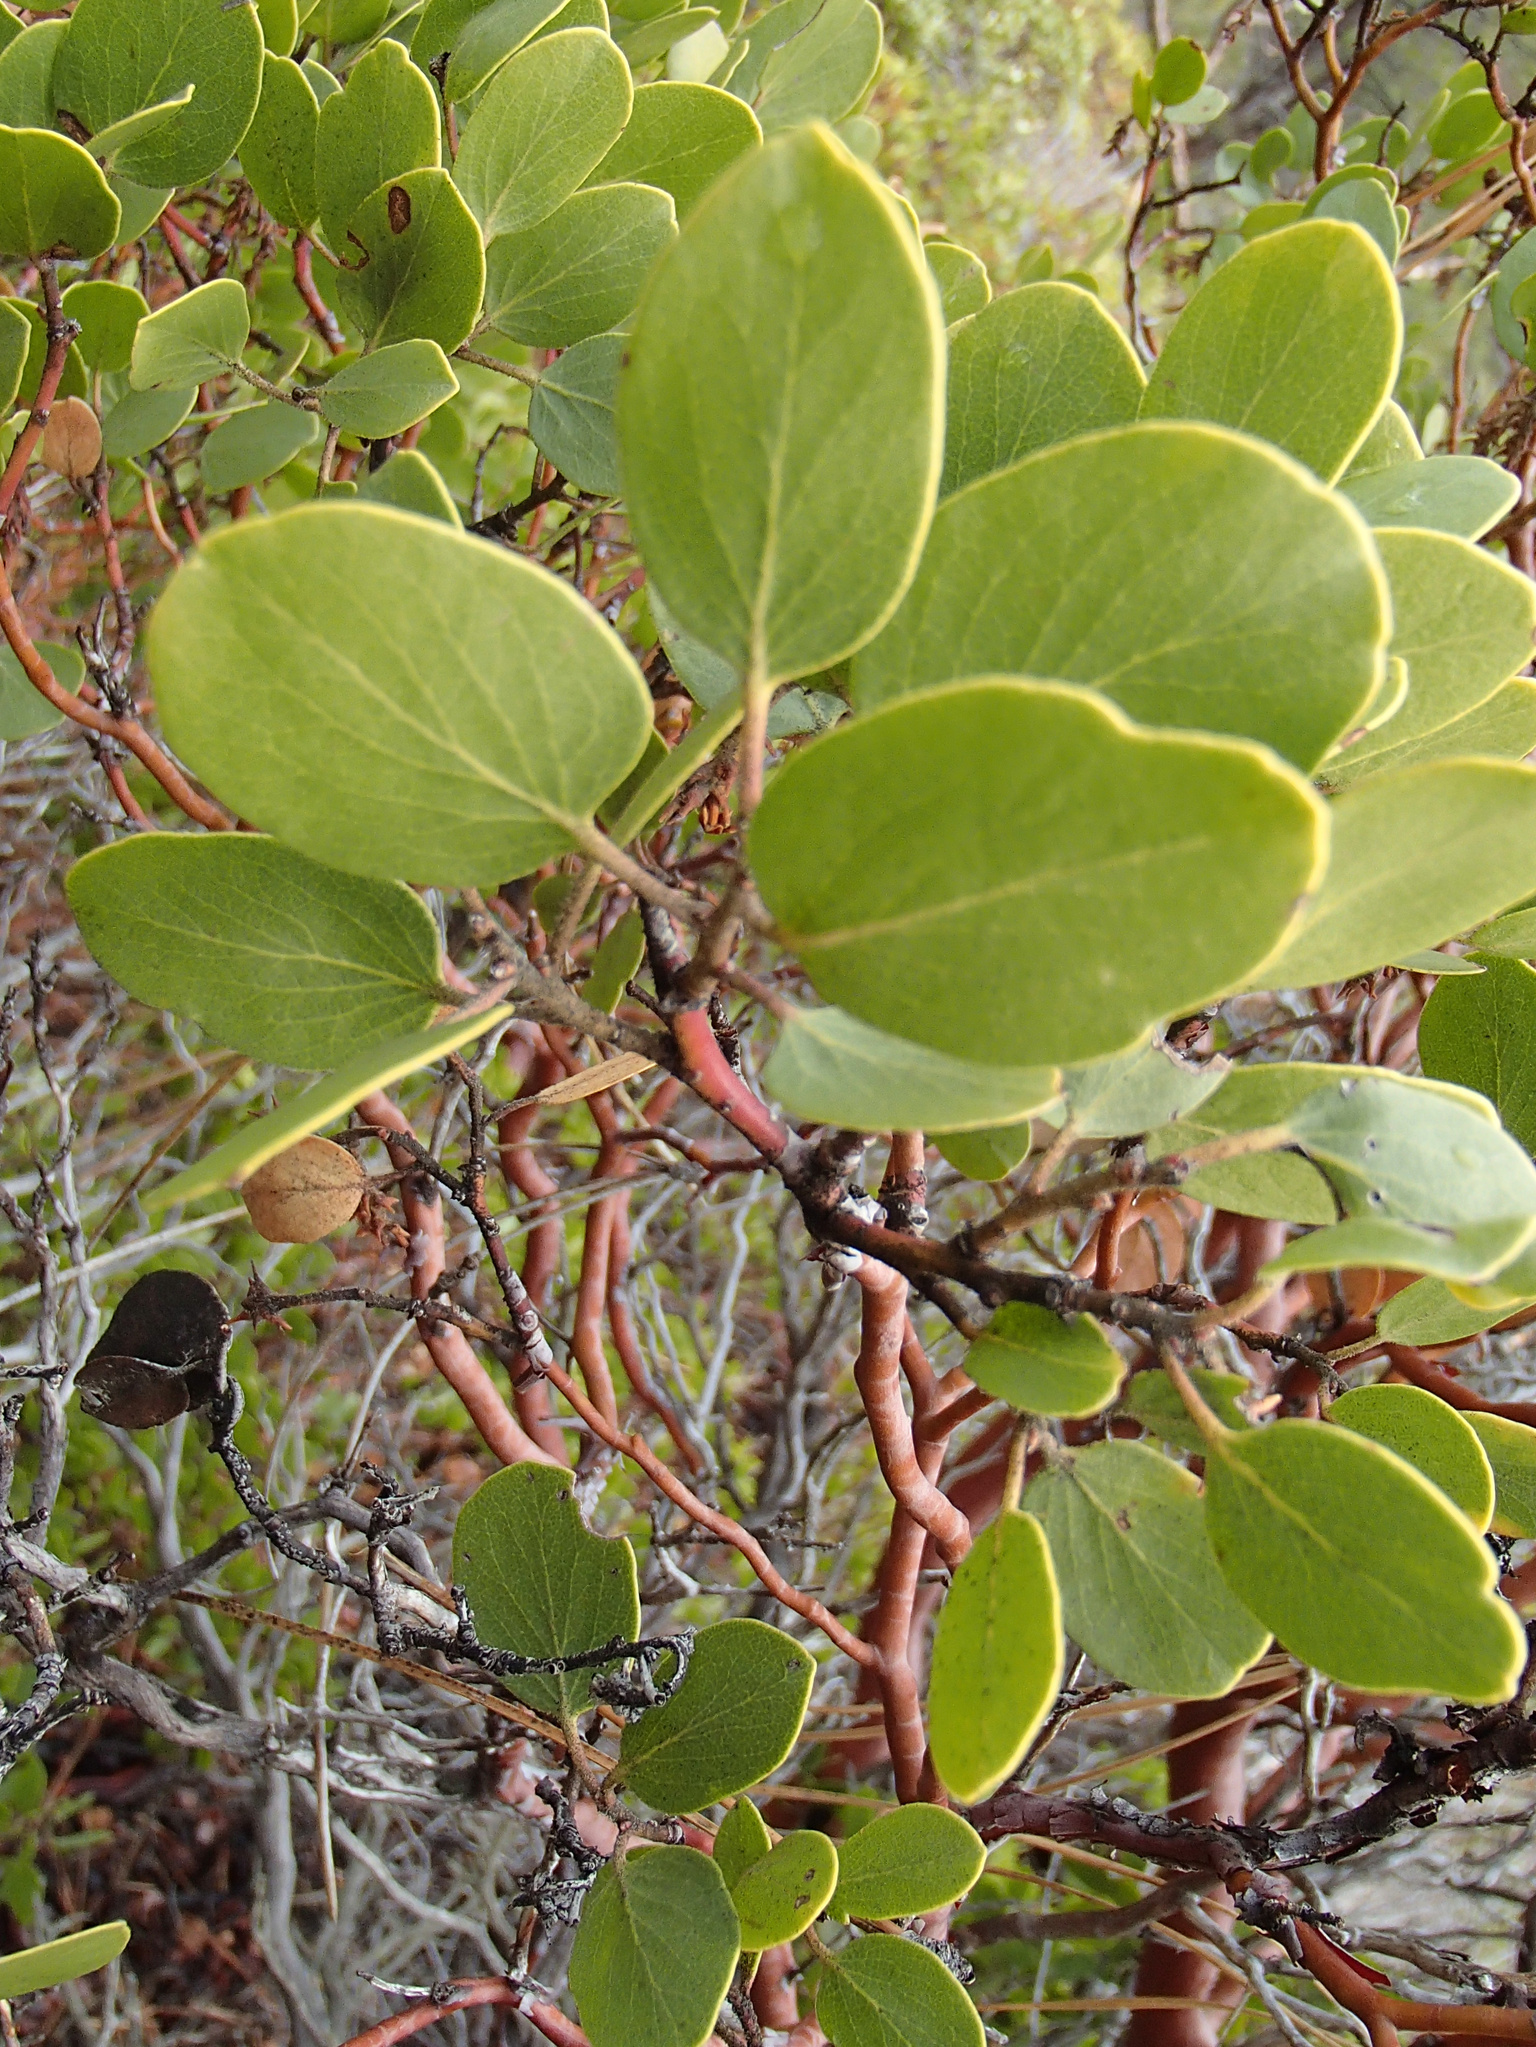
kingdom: Plantae
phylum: Tracheophyta
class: Magnoliopsida
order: Ericales
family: Ericaceae
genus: Arctostaphylos
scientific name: Arctostaphylos patula
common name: Green-leaf manzanita
